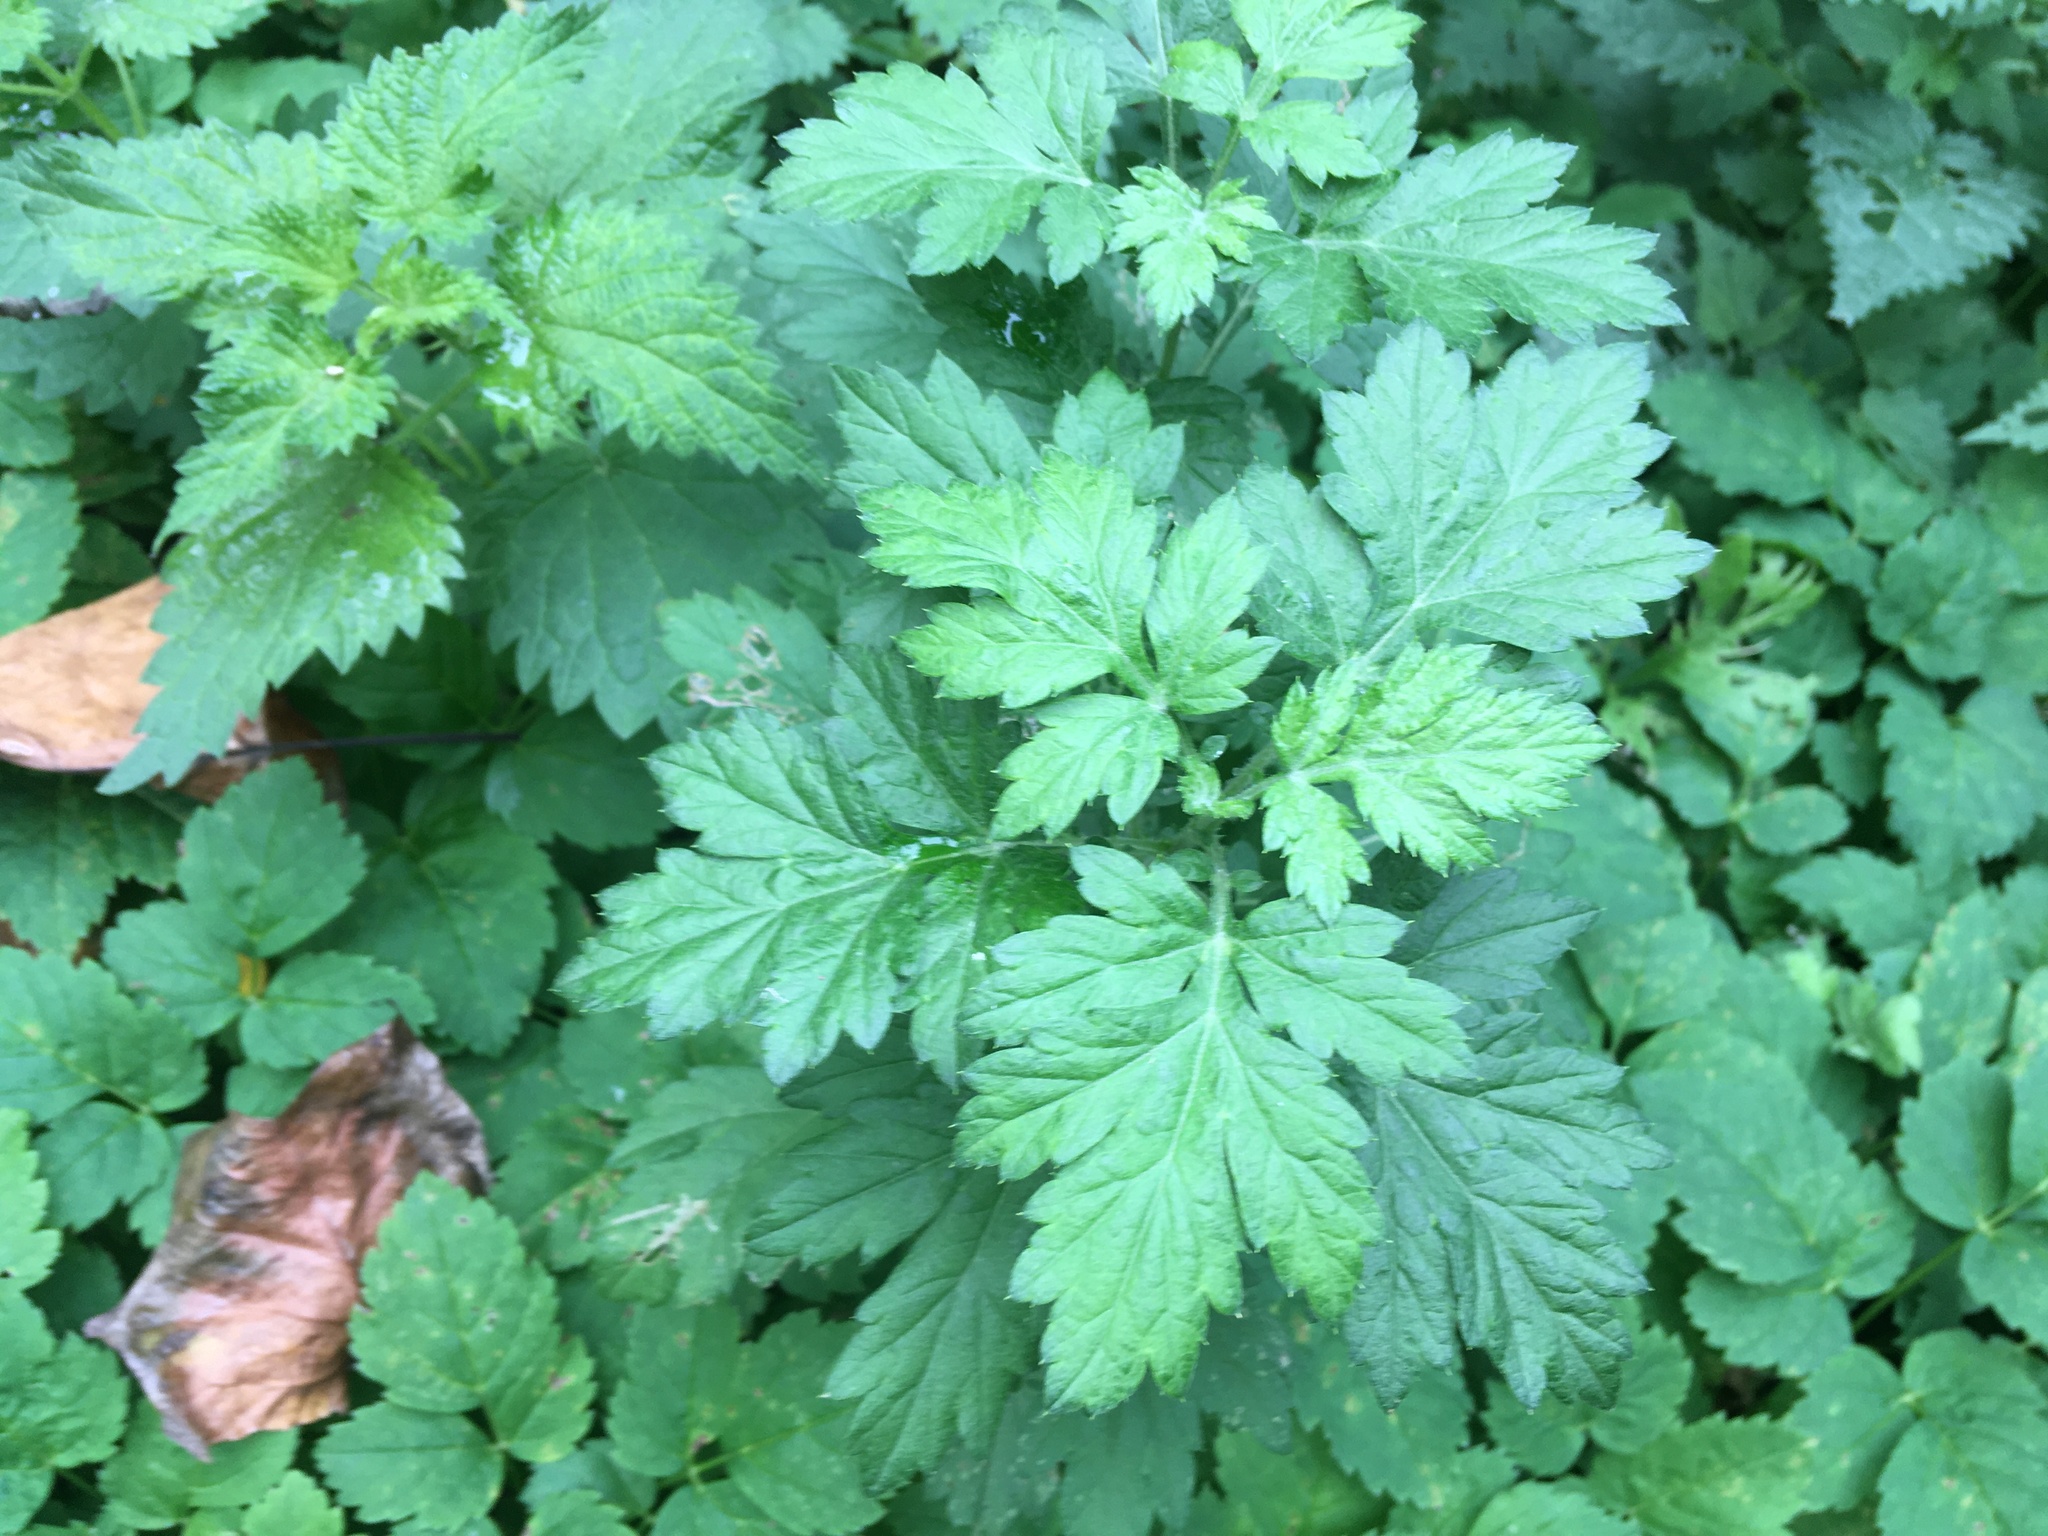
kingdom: Plantae
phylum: Tracheophyta
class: Magnoliopsida
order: Asterales
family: Asteraceae
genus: Artemisia
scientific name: Artemisia vulgaris
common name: Mugwort
